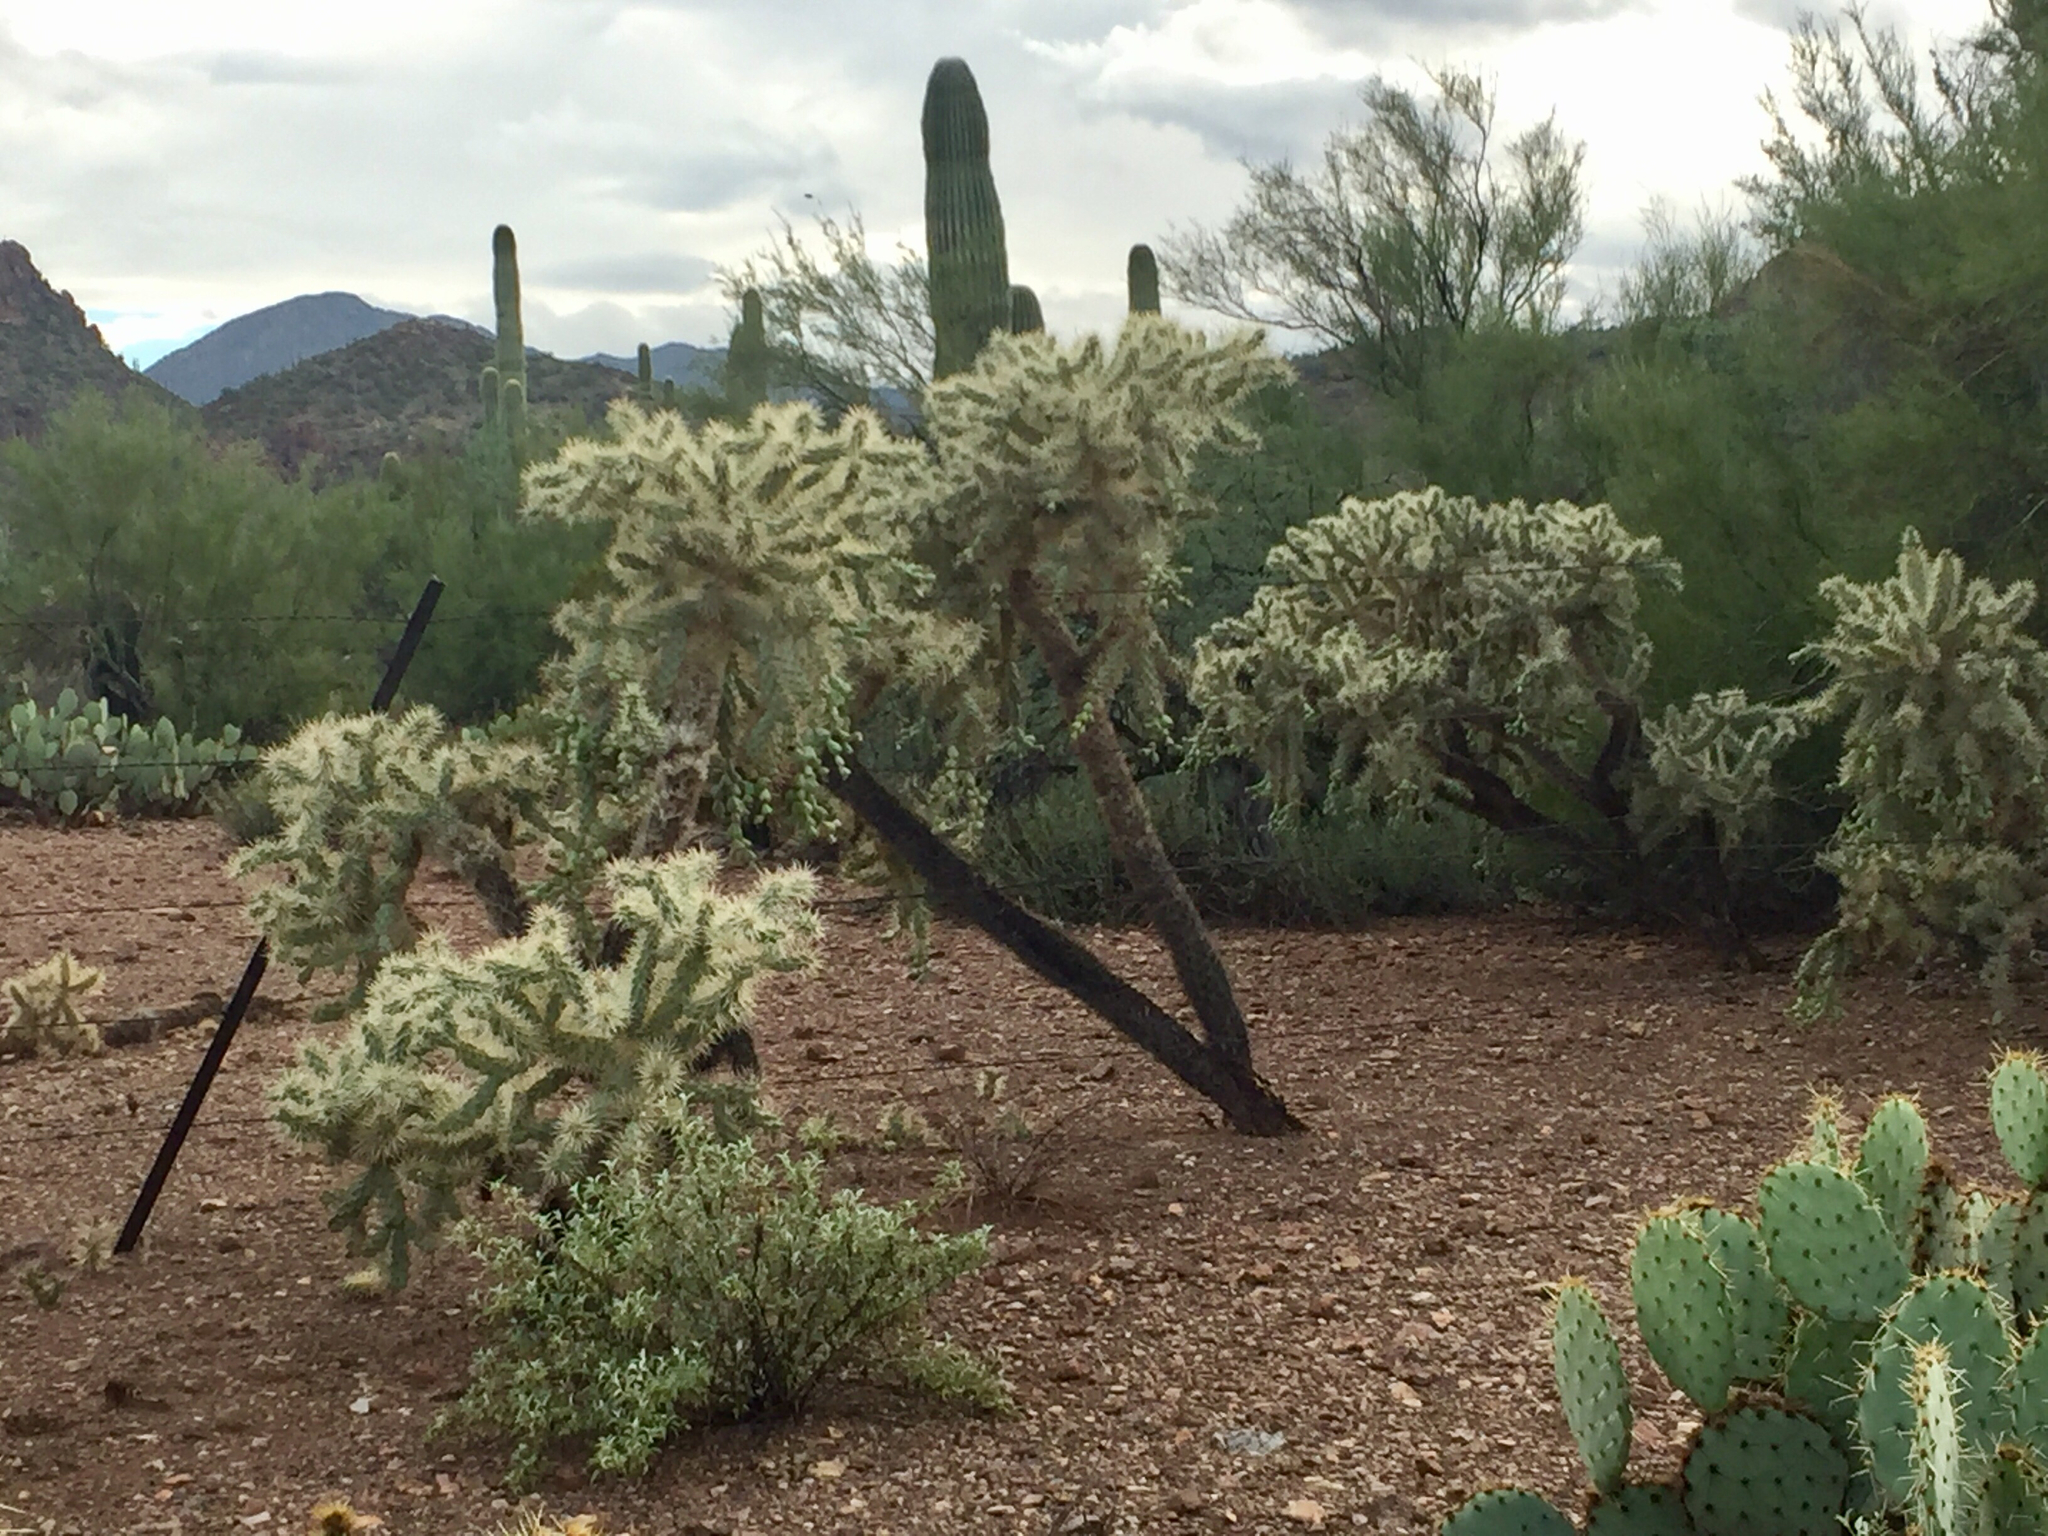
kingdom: Plantae
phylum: Tracheophyta
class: Magnoliopsida
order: Caryophyllales
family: Cactaceae
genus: Cylindropuntia
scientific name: Cylindropuntia fulgida
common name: Jumping cholla
